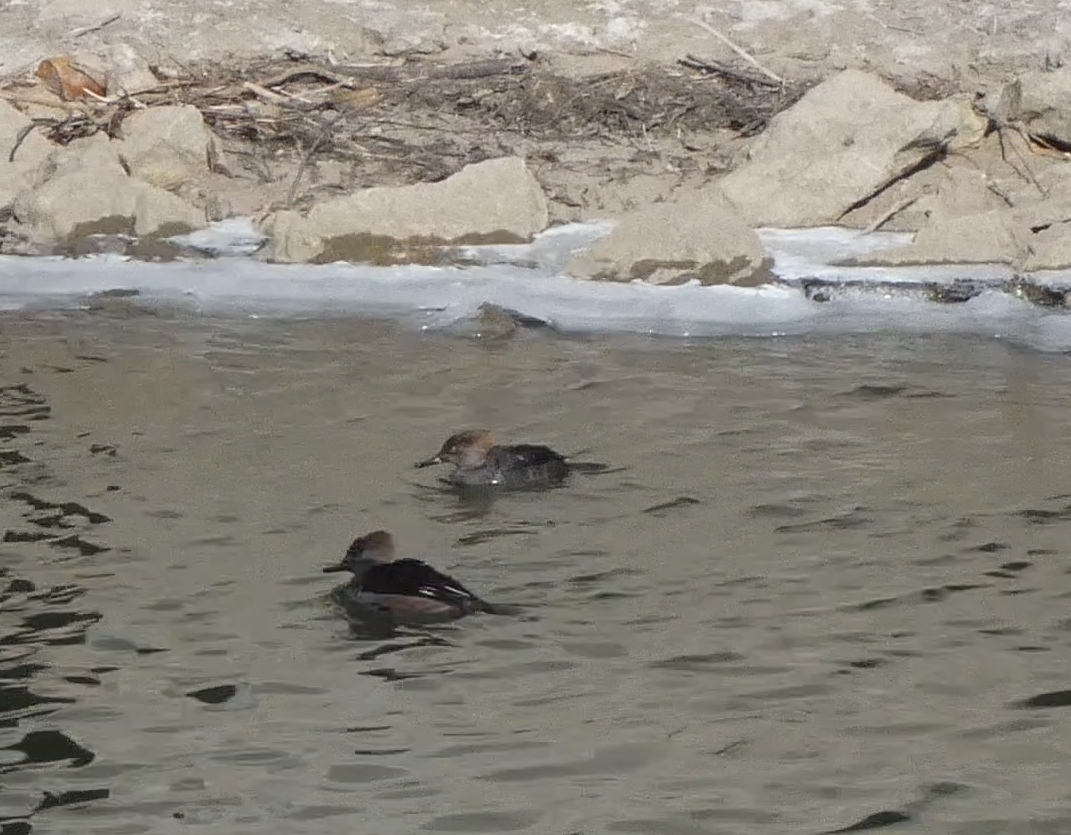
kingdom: Animalia
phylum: Chordata
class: Aves
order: Anseriformes
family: Anatidae
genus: Lophodytes
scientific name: Lophodytes cucullatus
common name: Hooded merganser
